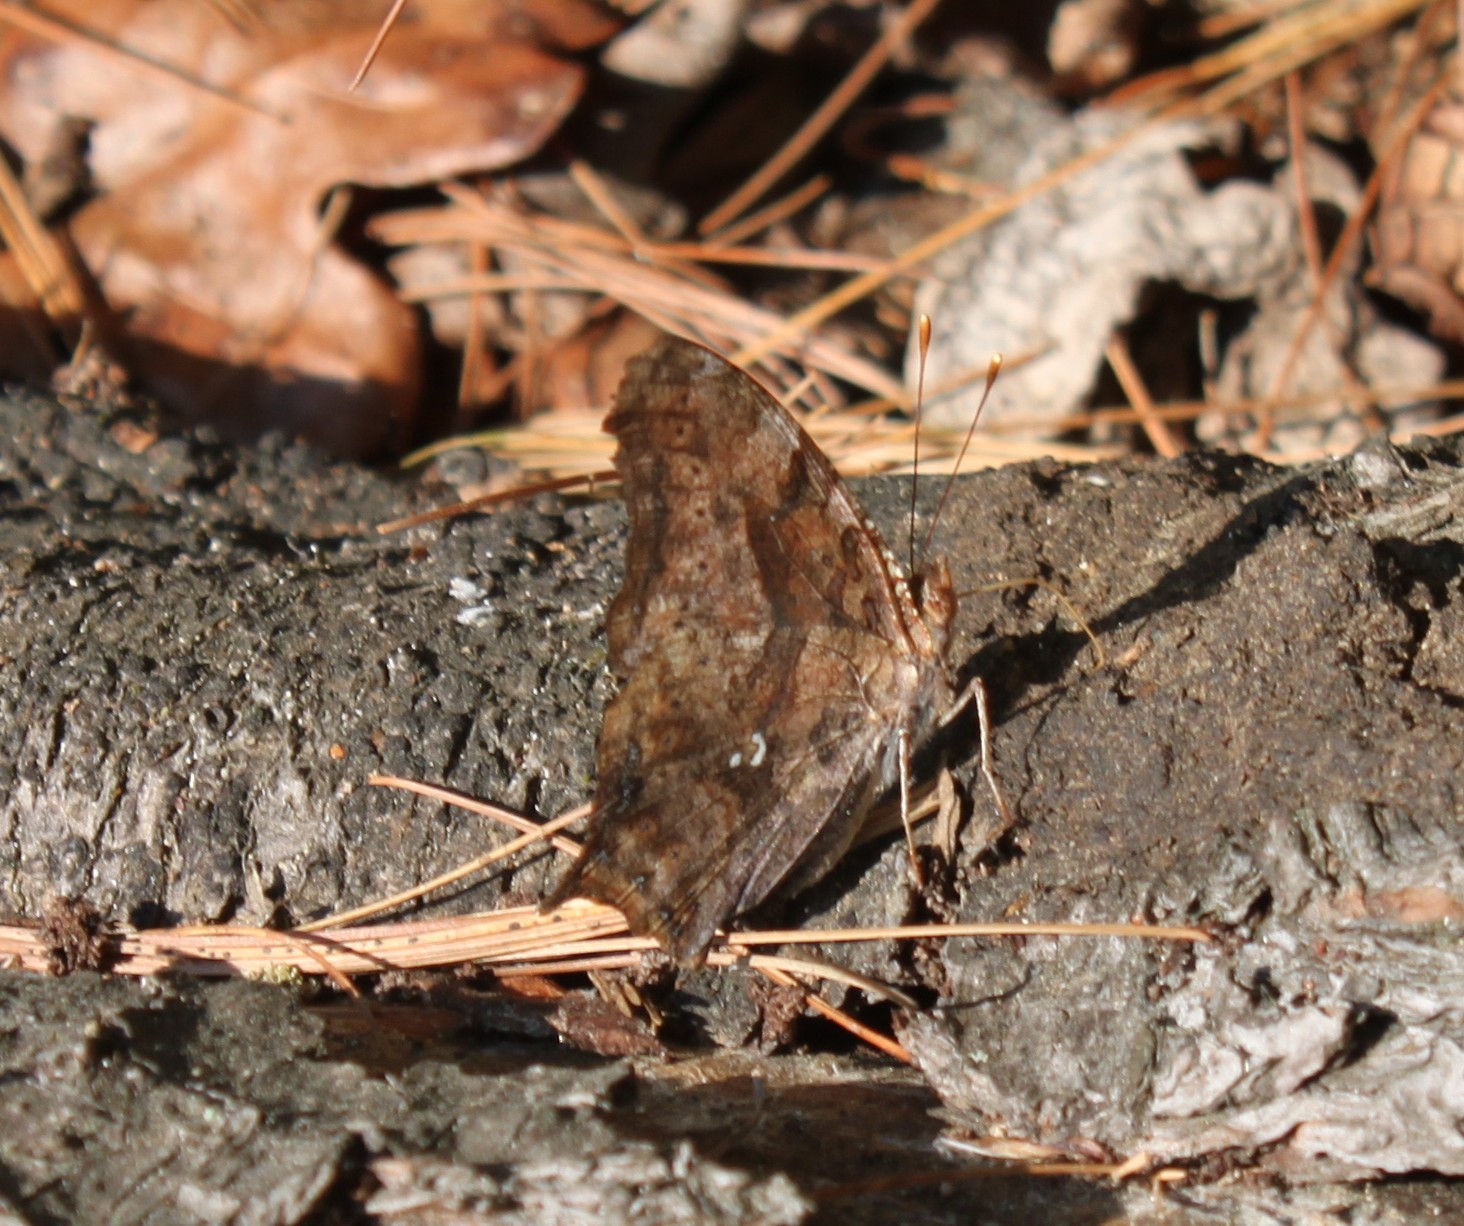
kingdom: Animalia
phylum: Arthropoda
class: Insecta
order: Lepidoptera
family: Nymphalidae
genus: Polygonia
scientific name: Polygonia interrogationis
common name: Question mark
